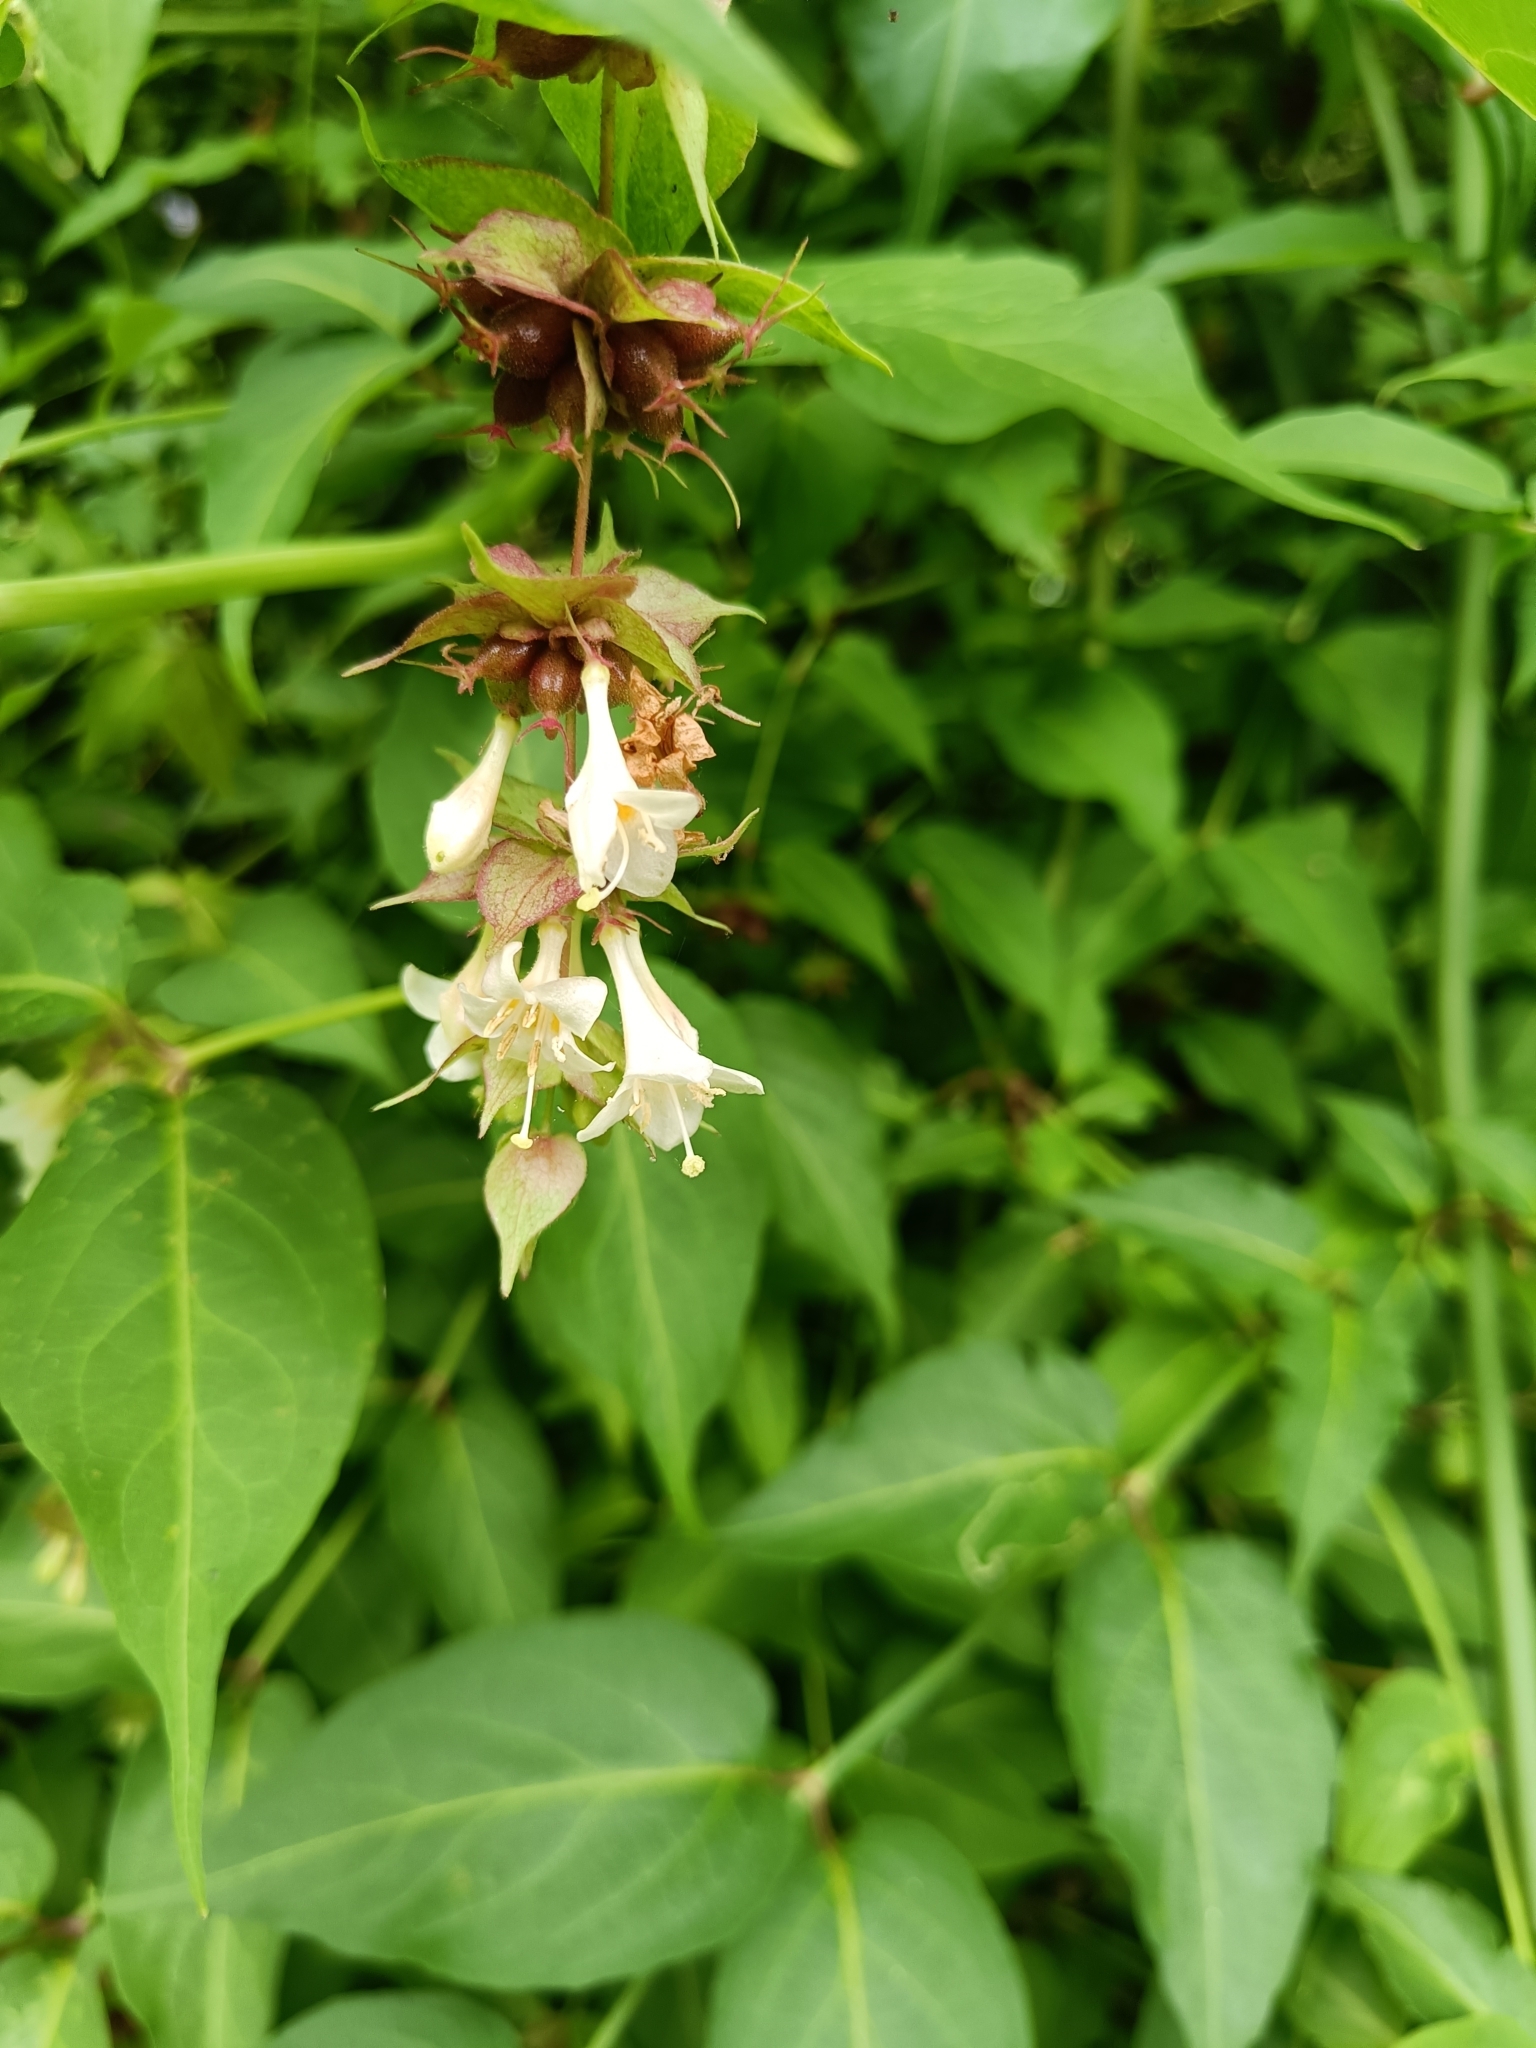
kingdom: Plantae
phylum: Tracheophyta
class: Magnoliopsida
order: Dipsacales
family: Caprifoliaceae
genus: Leycesteria
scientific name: Leycesteria formosa
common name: Himalayan honeysuckle
